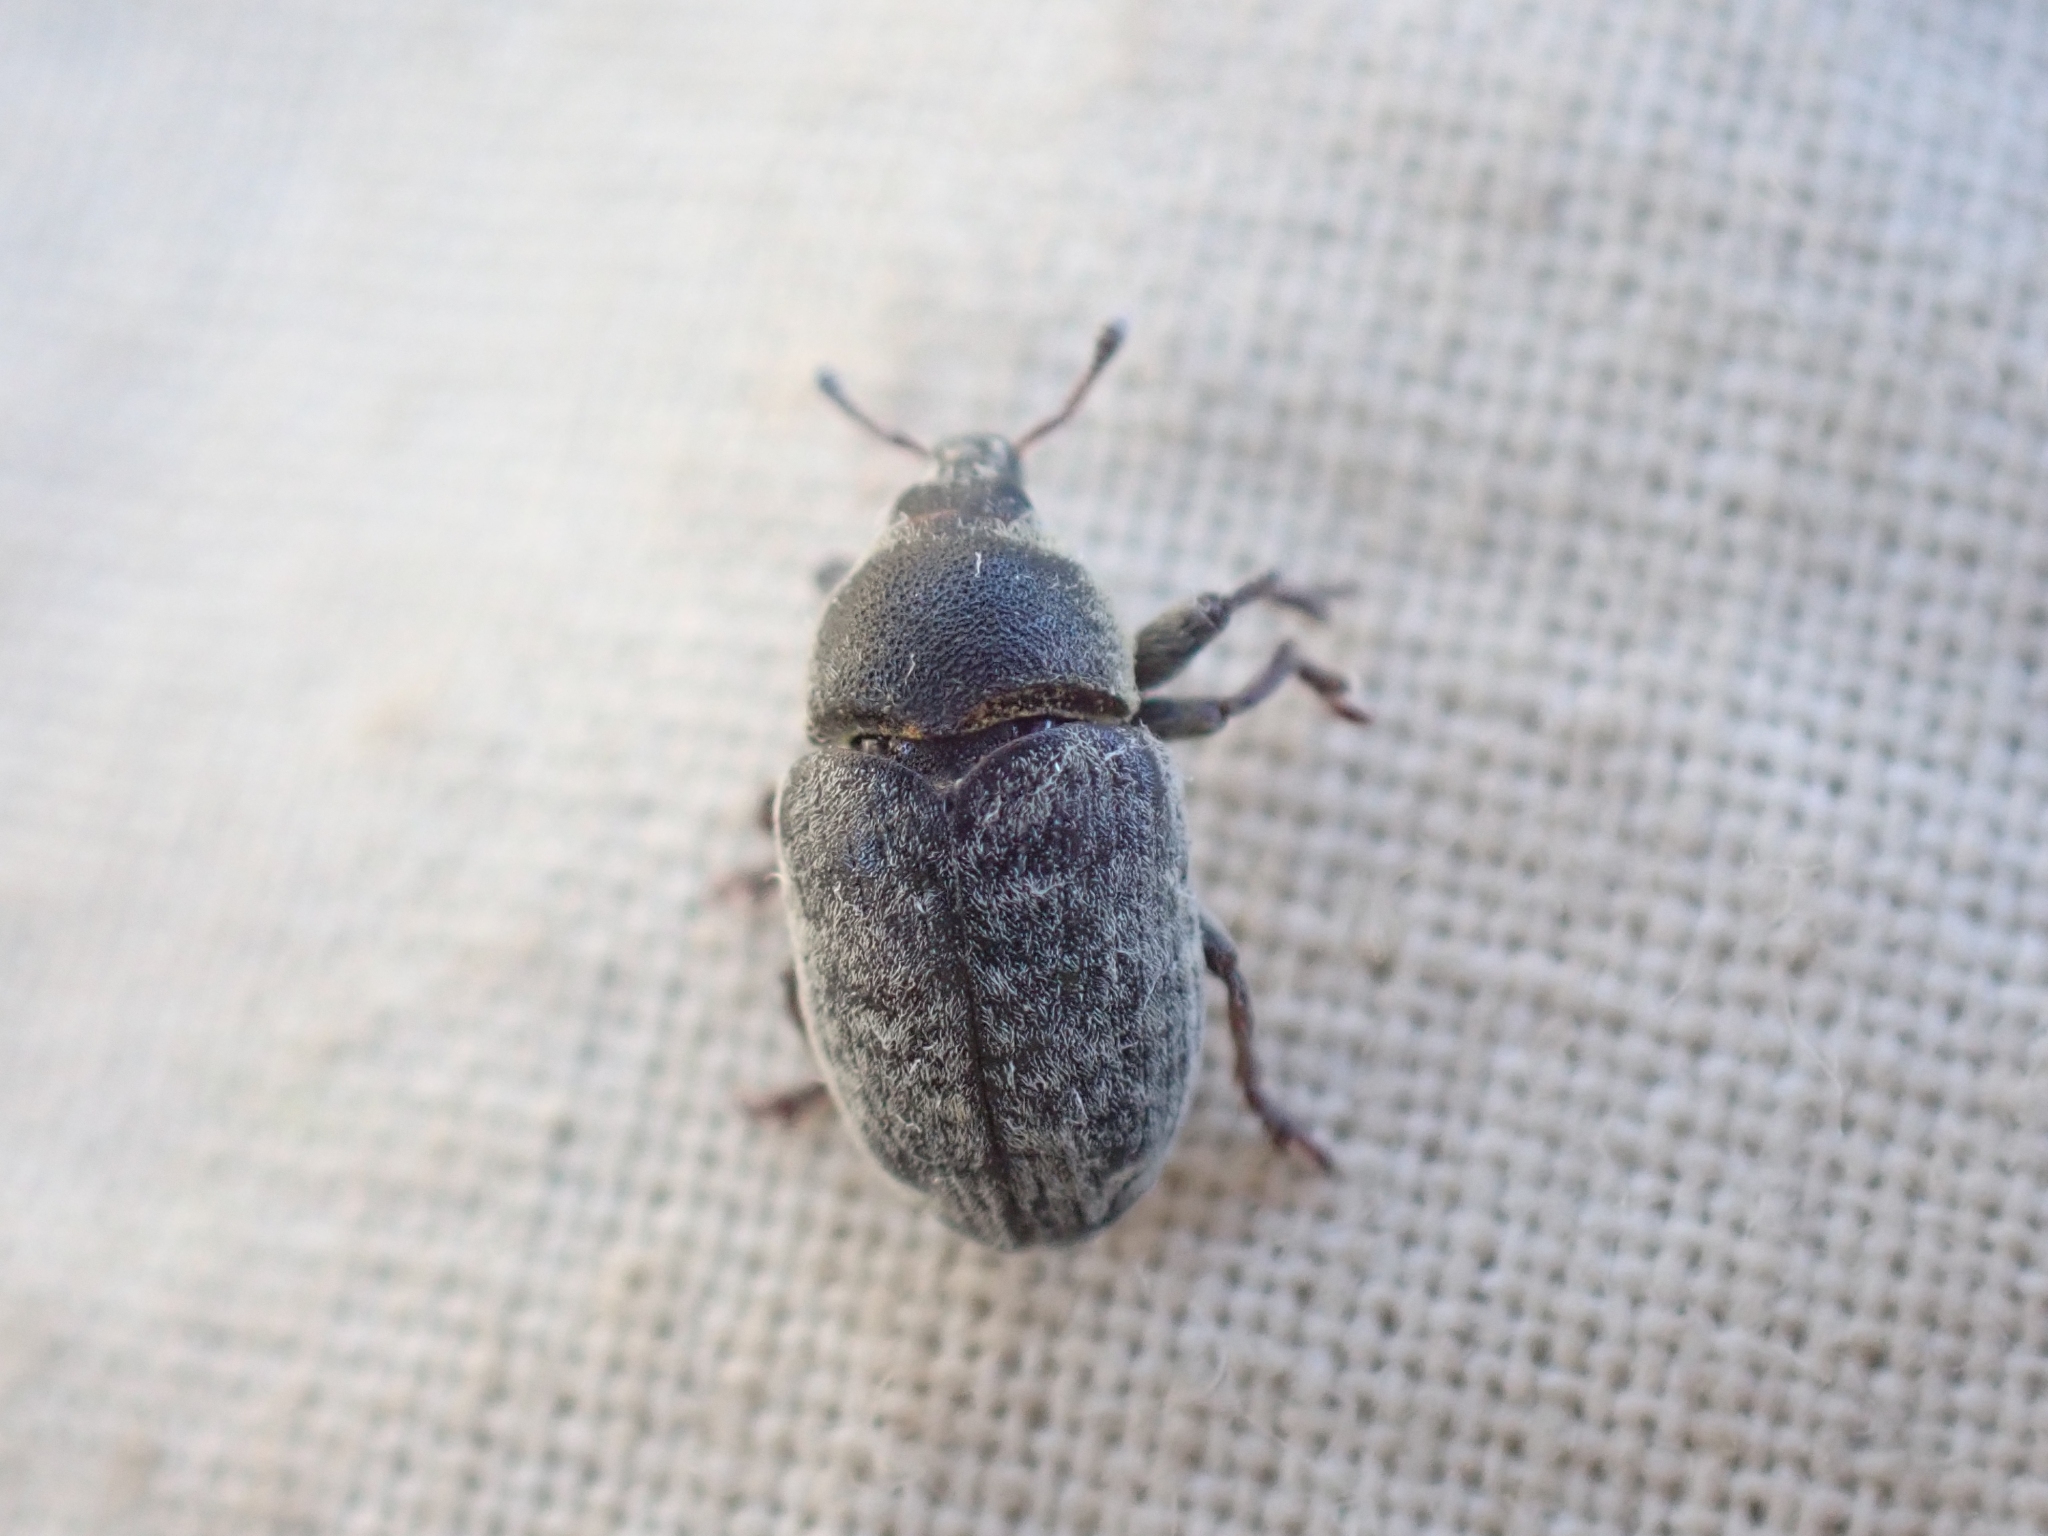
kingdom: Animalia
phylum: Arthropoda
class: Insecta
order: Coleoptera
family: Curculionidae
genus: Larinus
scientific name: Larinus minutus
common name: Weevil
